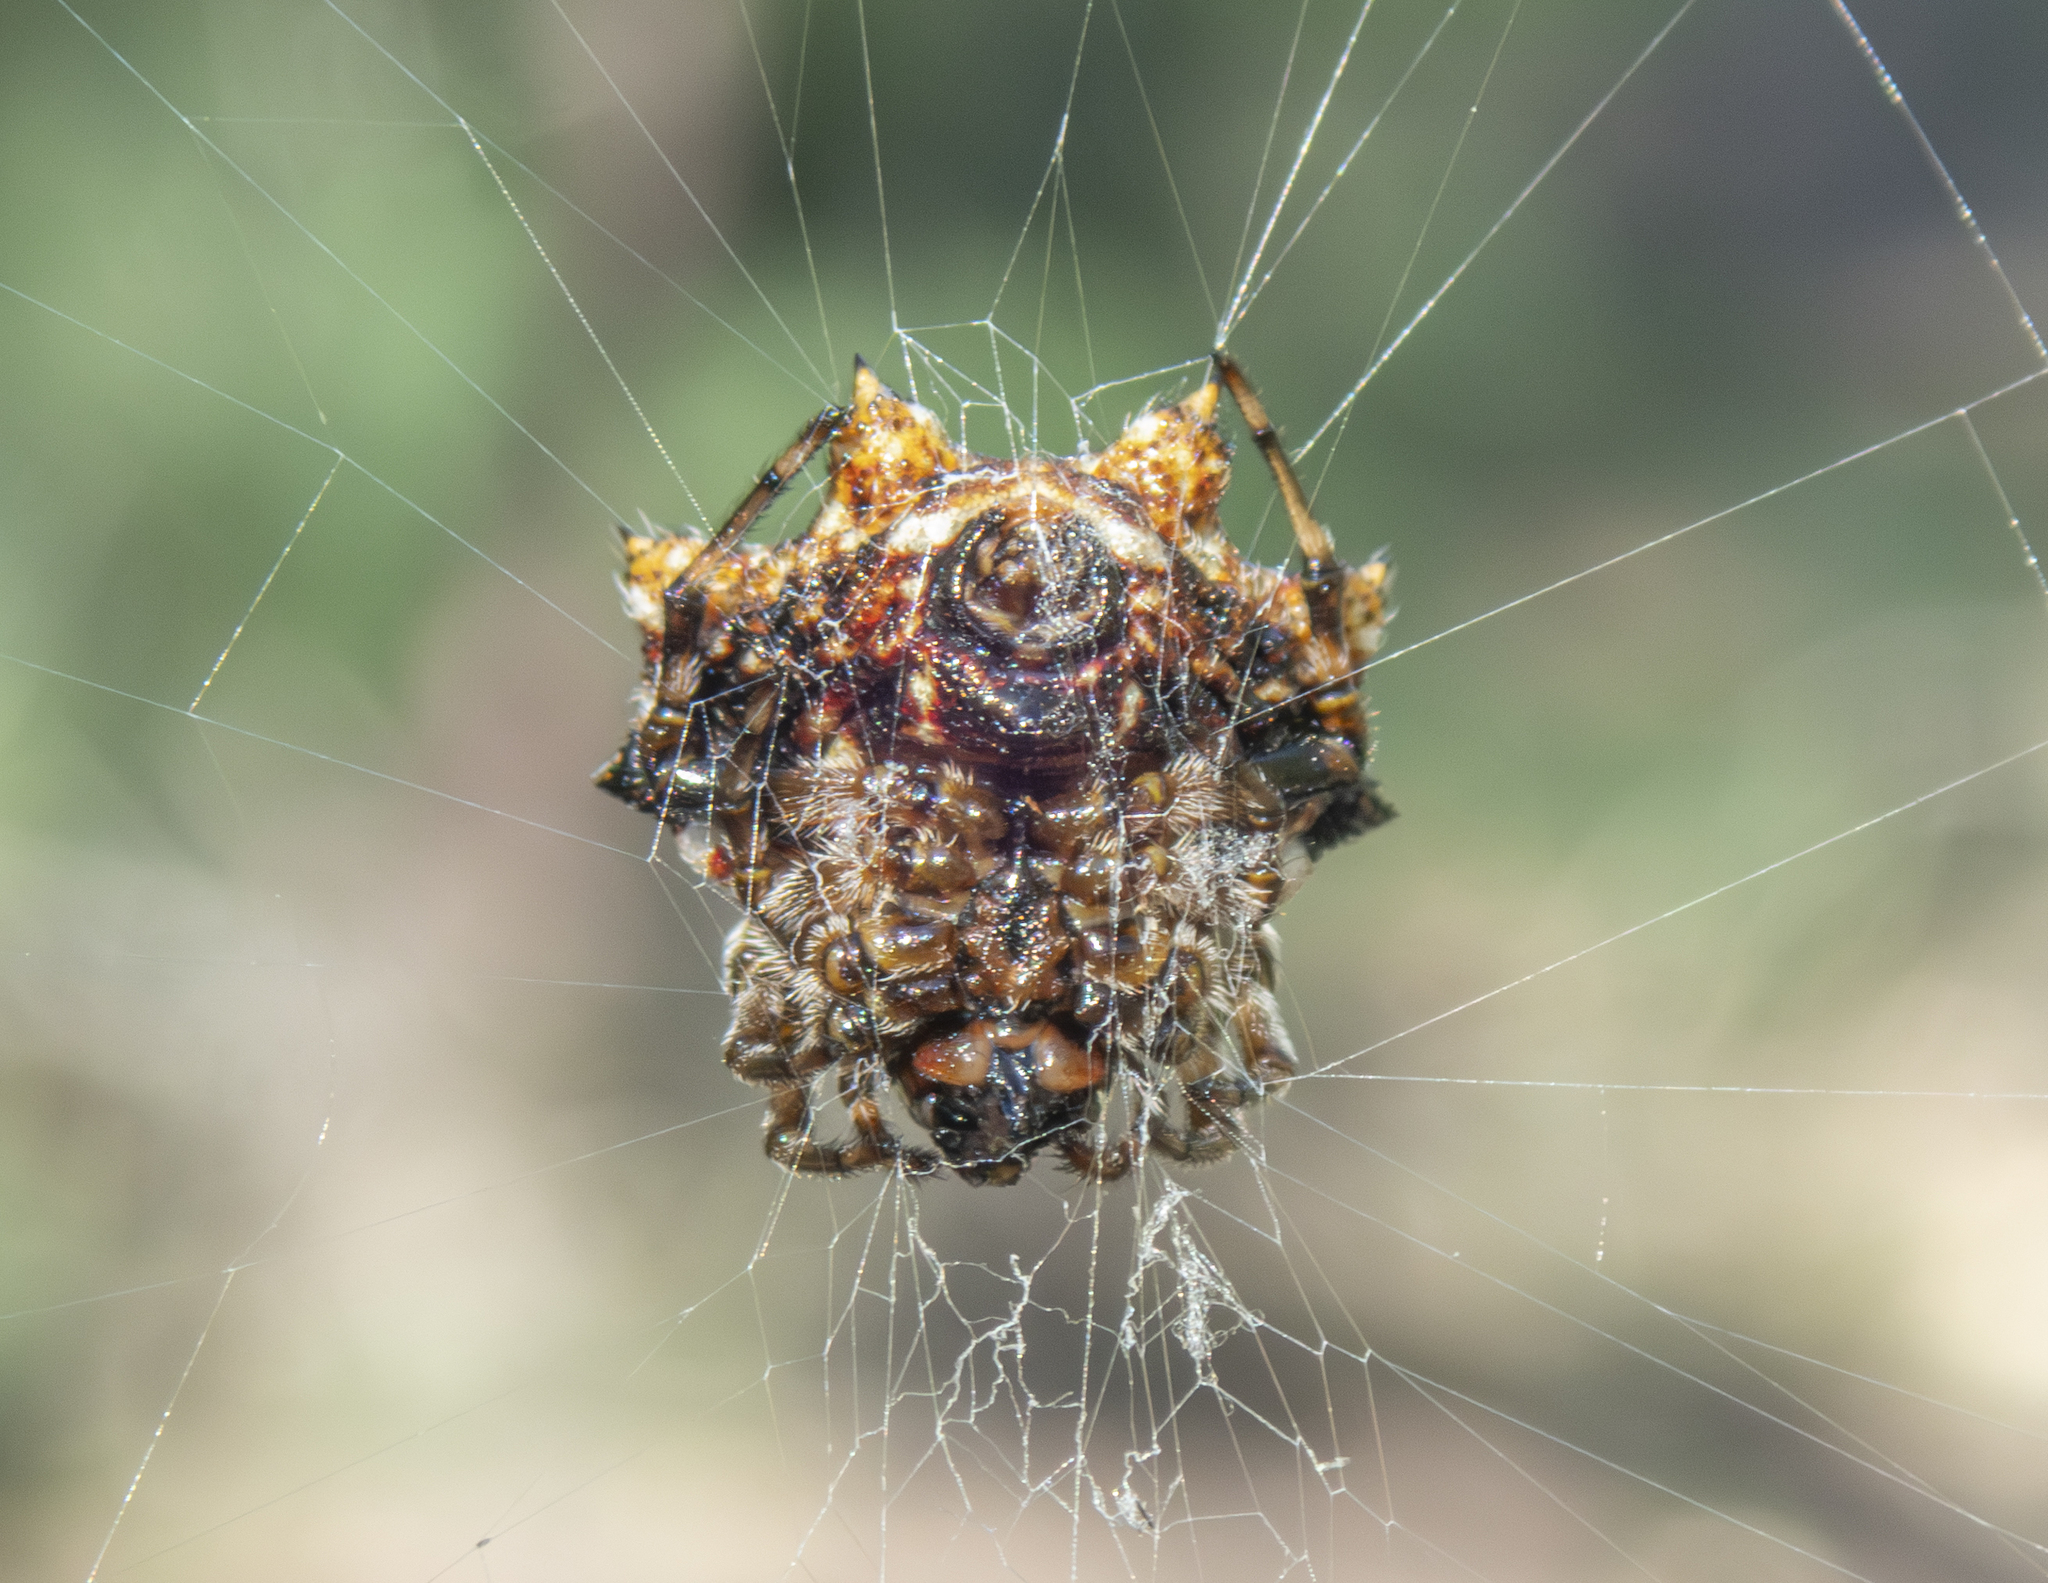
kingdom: Animalia
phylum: Arthropoda
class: Arachnida
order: Araneae
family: Araneidae
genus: Thelacantha
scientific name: Thelacantha brevispina
